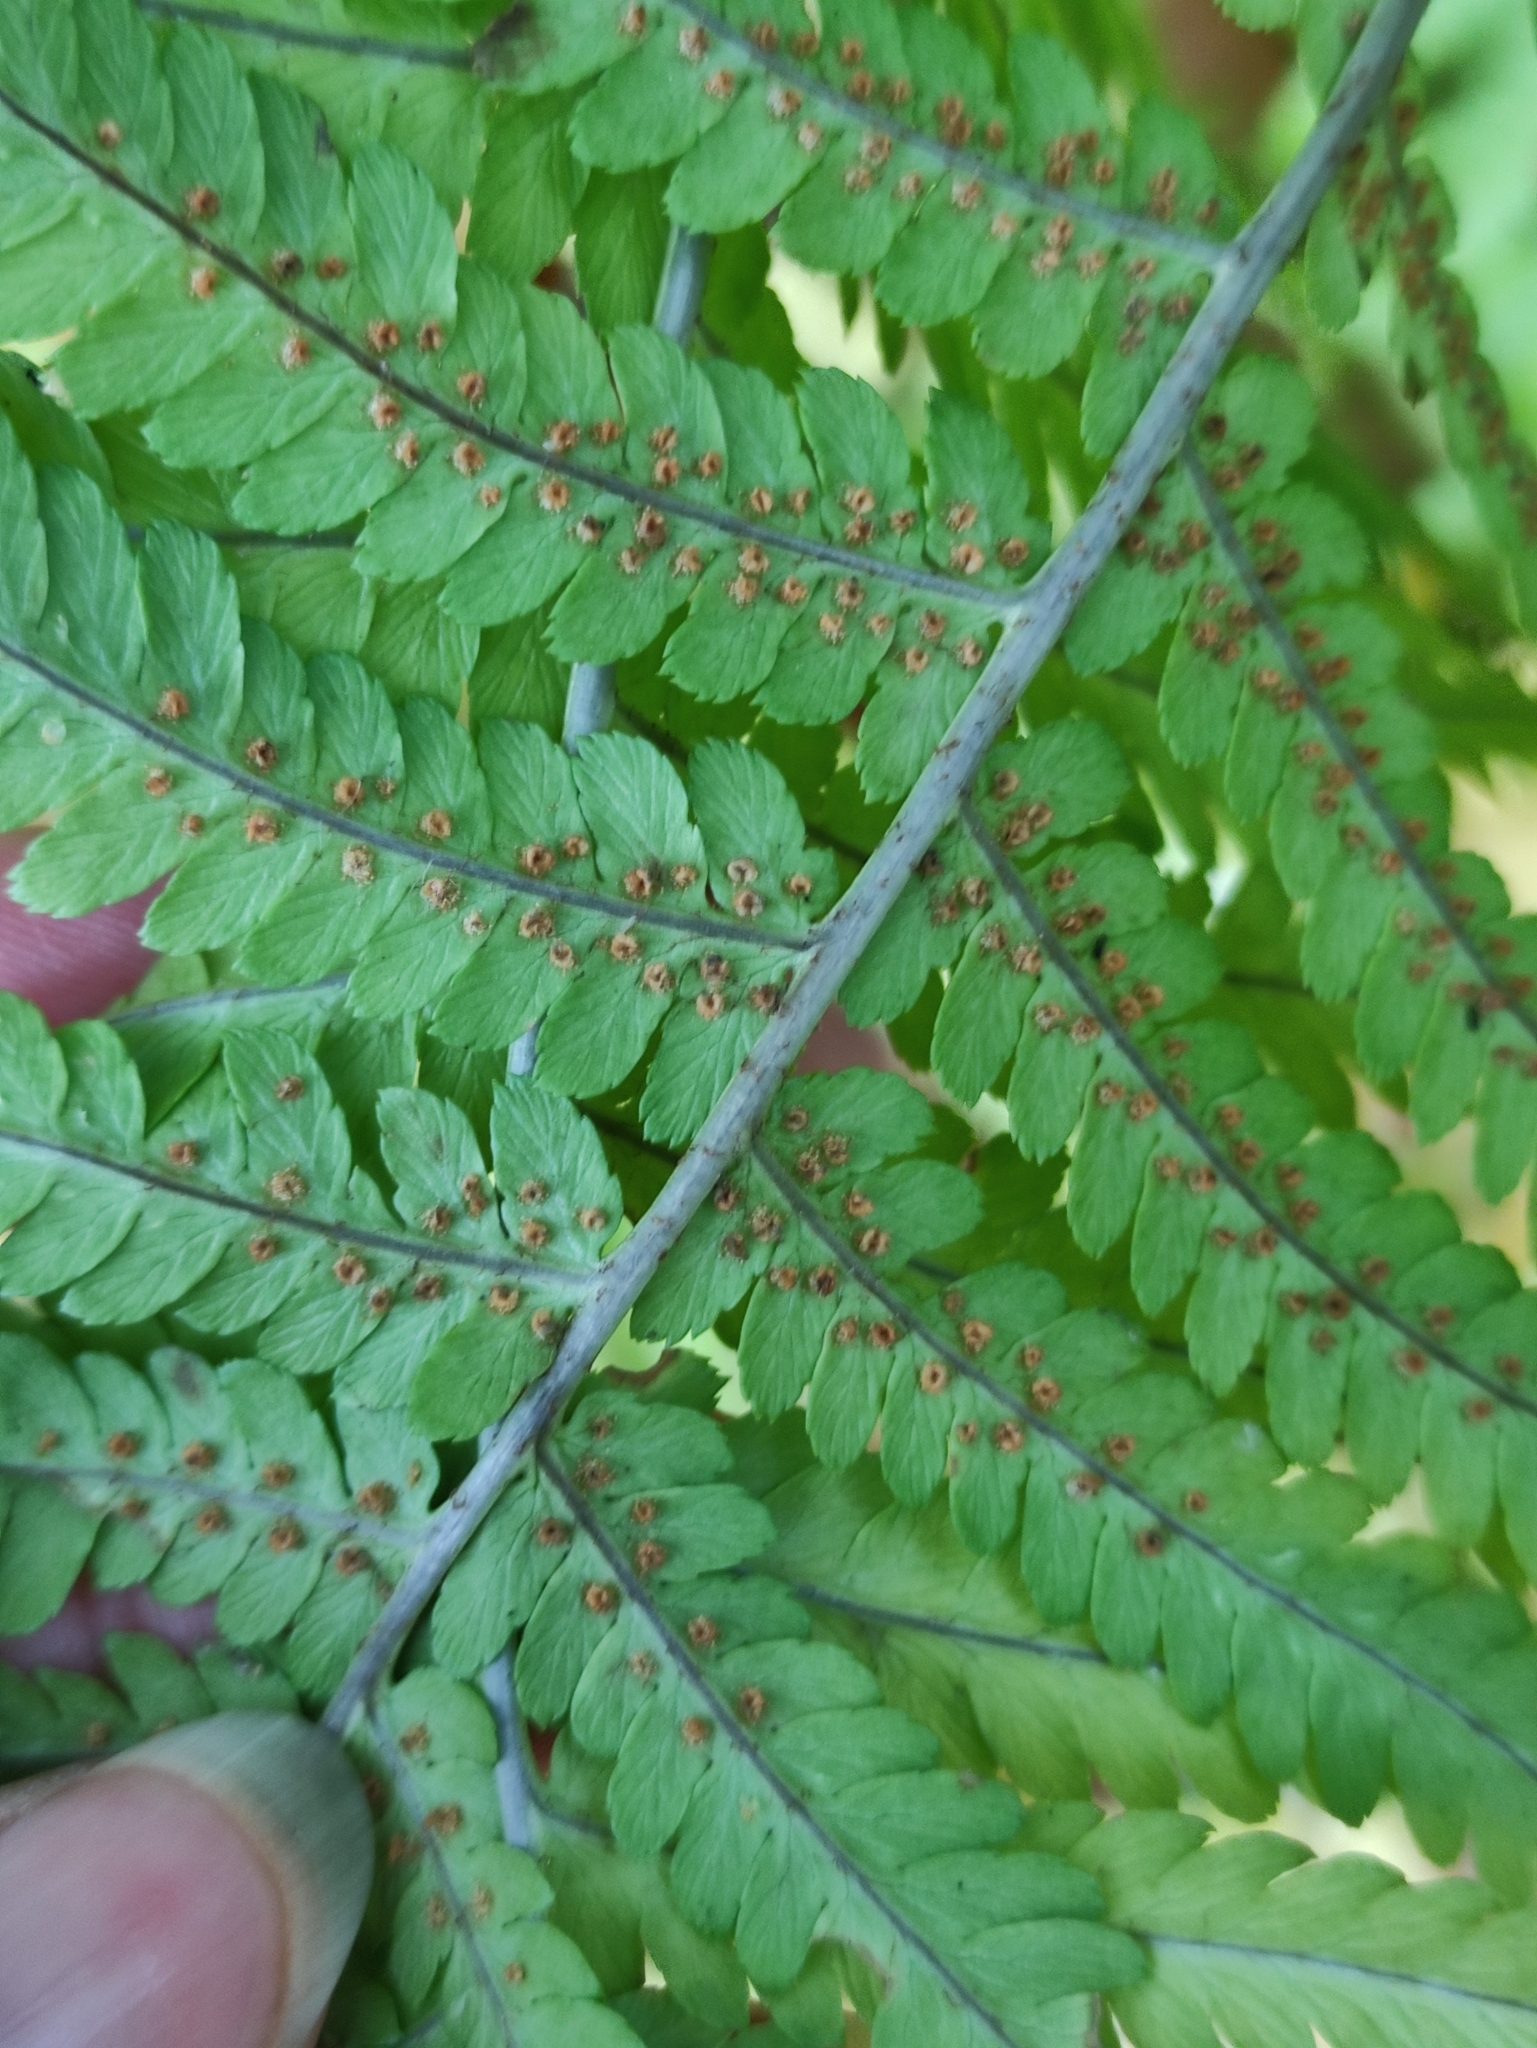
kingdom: Plantae
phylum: Tracheophyta
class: Polypodiopsida
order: Polypodiales
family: Dryopteridaceae
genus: Dryopteris
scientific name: Dryopteris filix-mas
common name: Male fern
